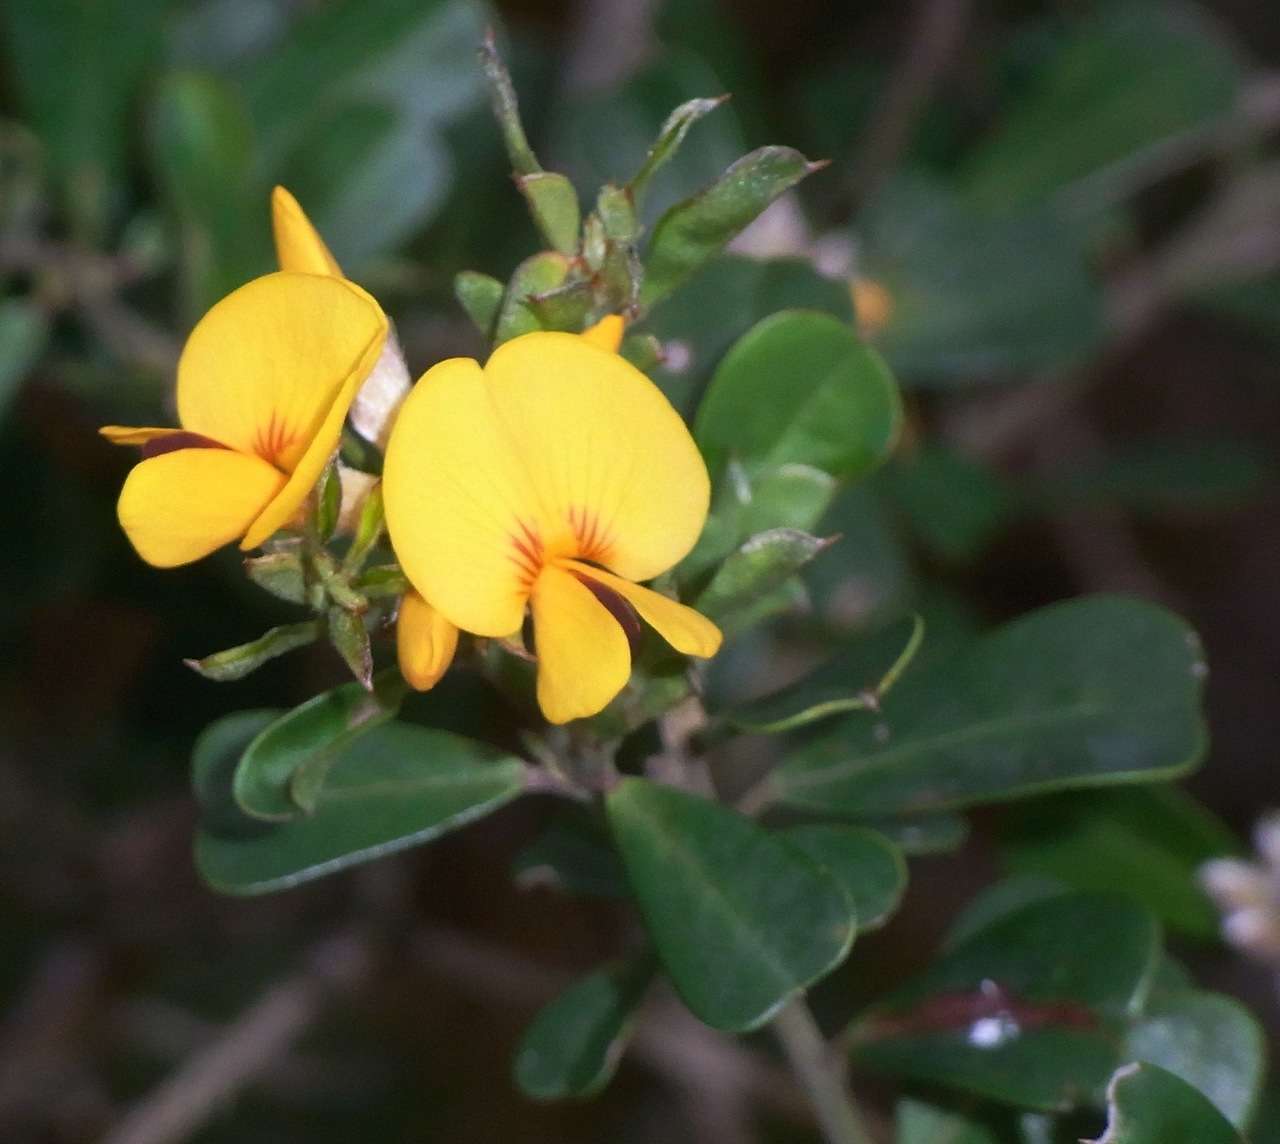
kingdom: Plantae
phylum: Tracheophyta
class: Magnoliopsida
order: Fabales
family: Fabaceae
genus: Pultenaea
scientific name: Pultenaea daphnoides
